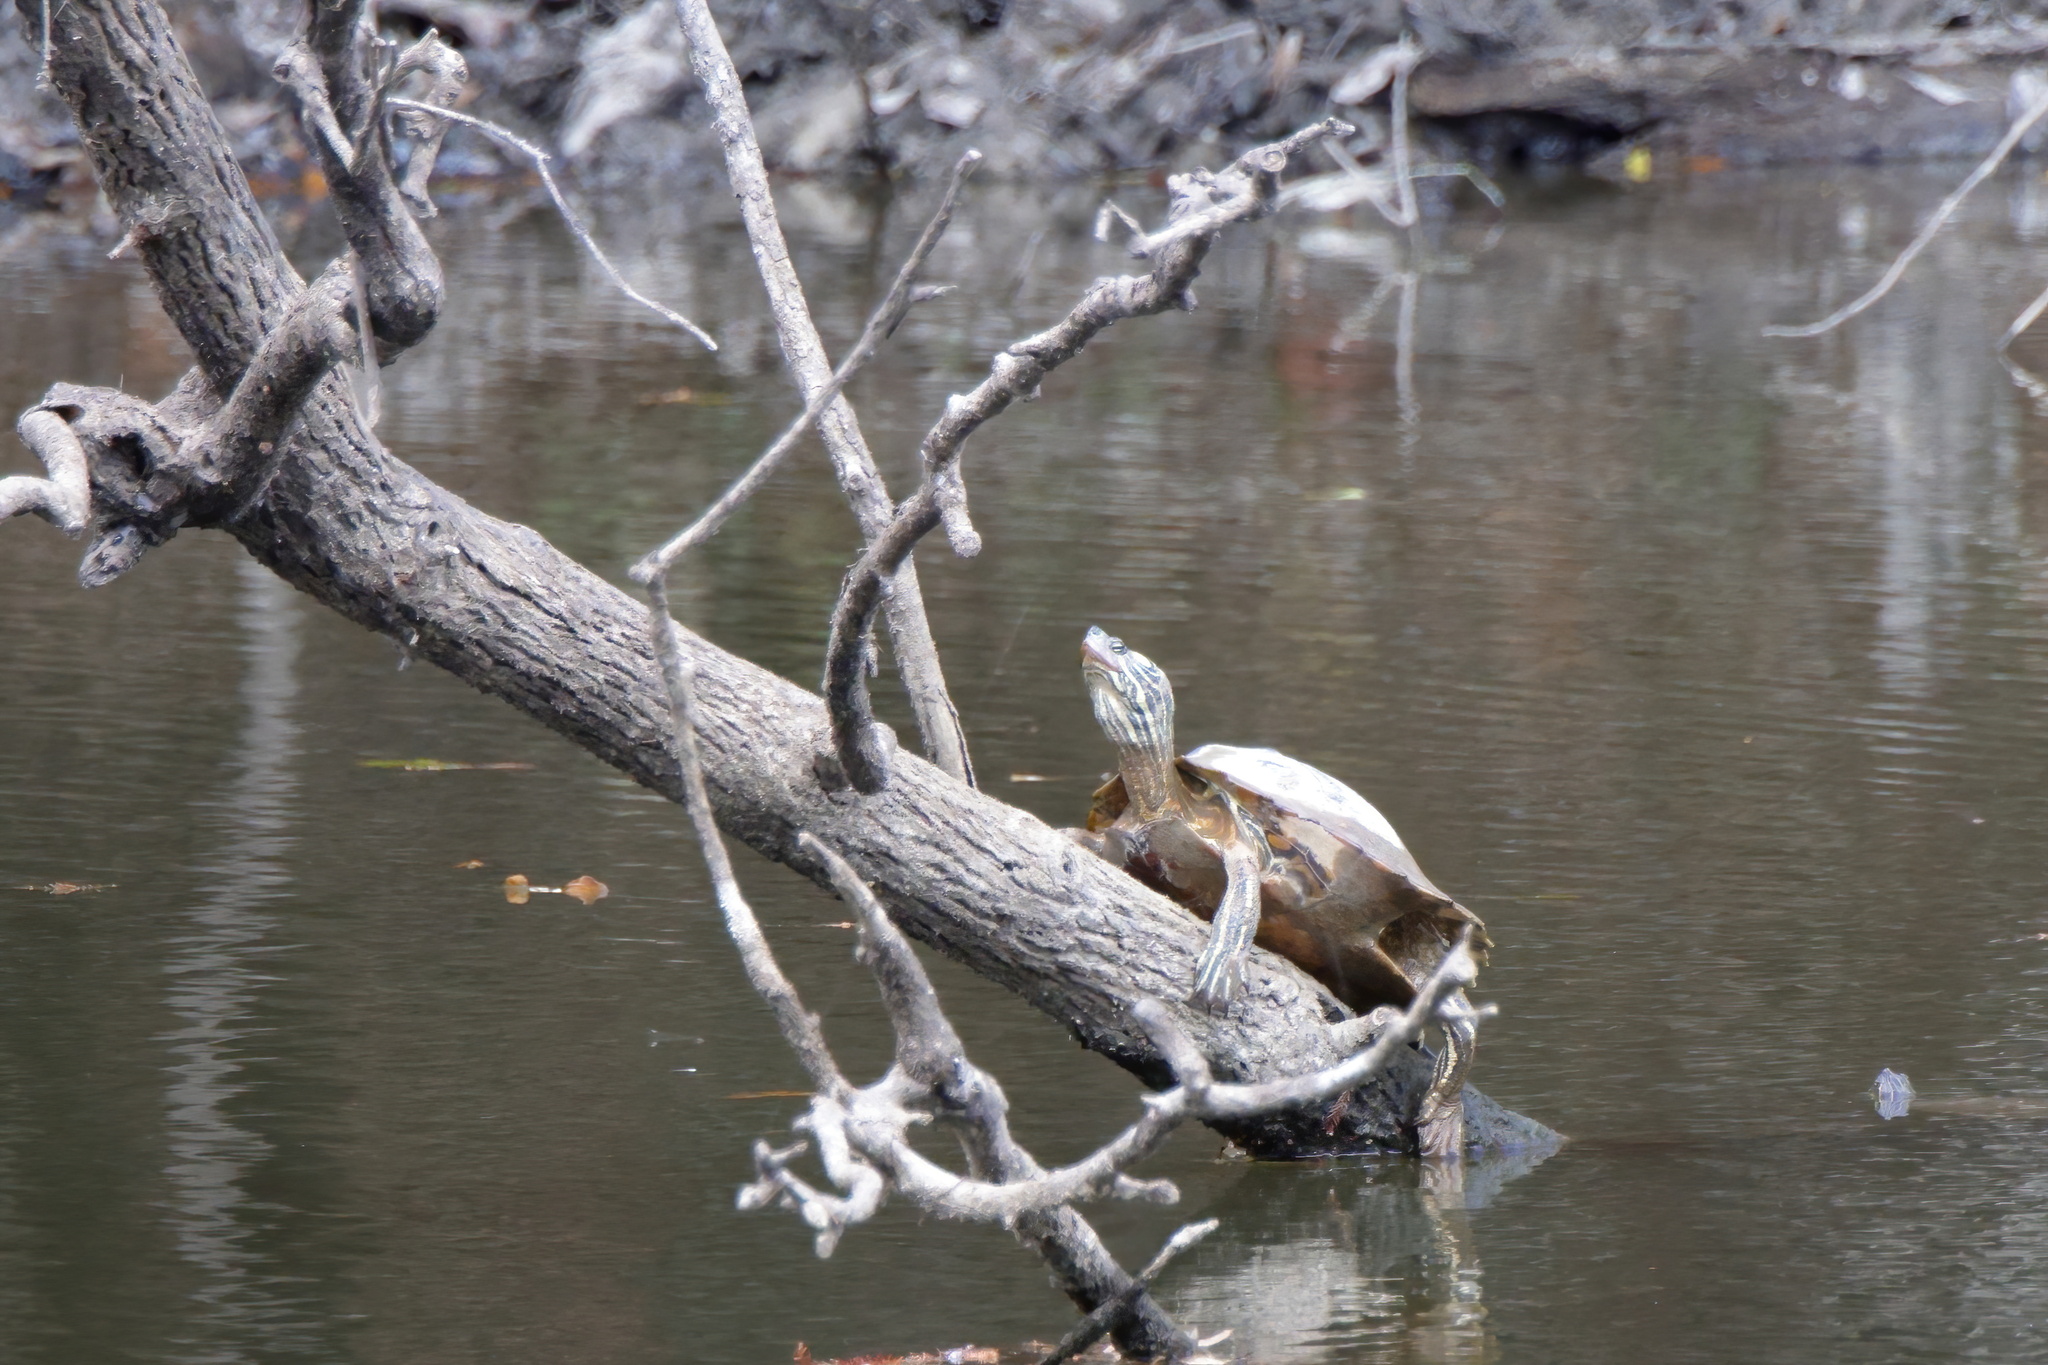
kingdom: Animalia
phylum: Chordata
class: Testudines
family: Emydidae
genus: Graptemys
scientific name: Graptemys oculifera
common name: Ringed map turtle
